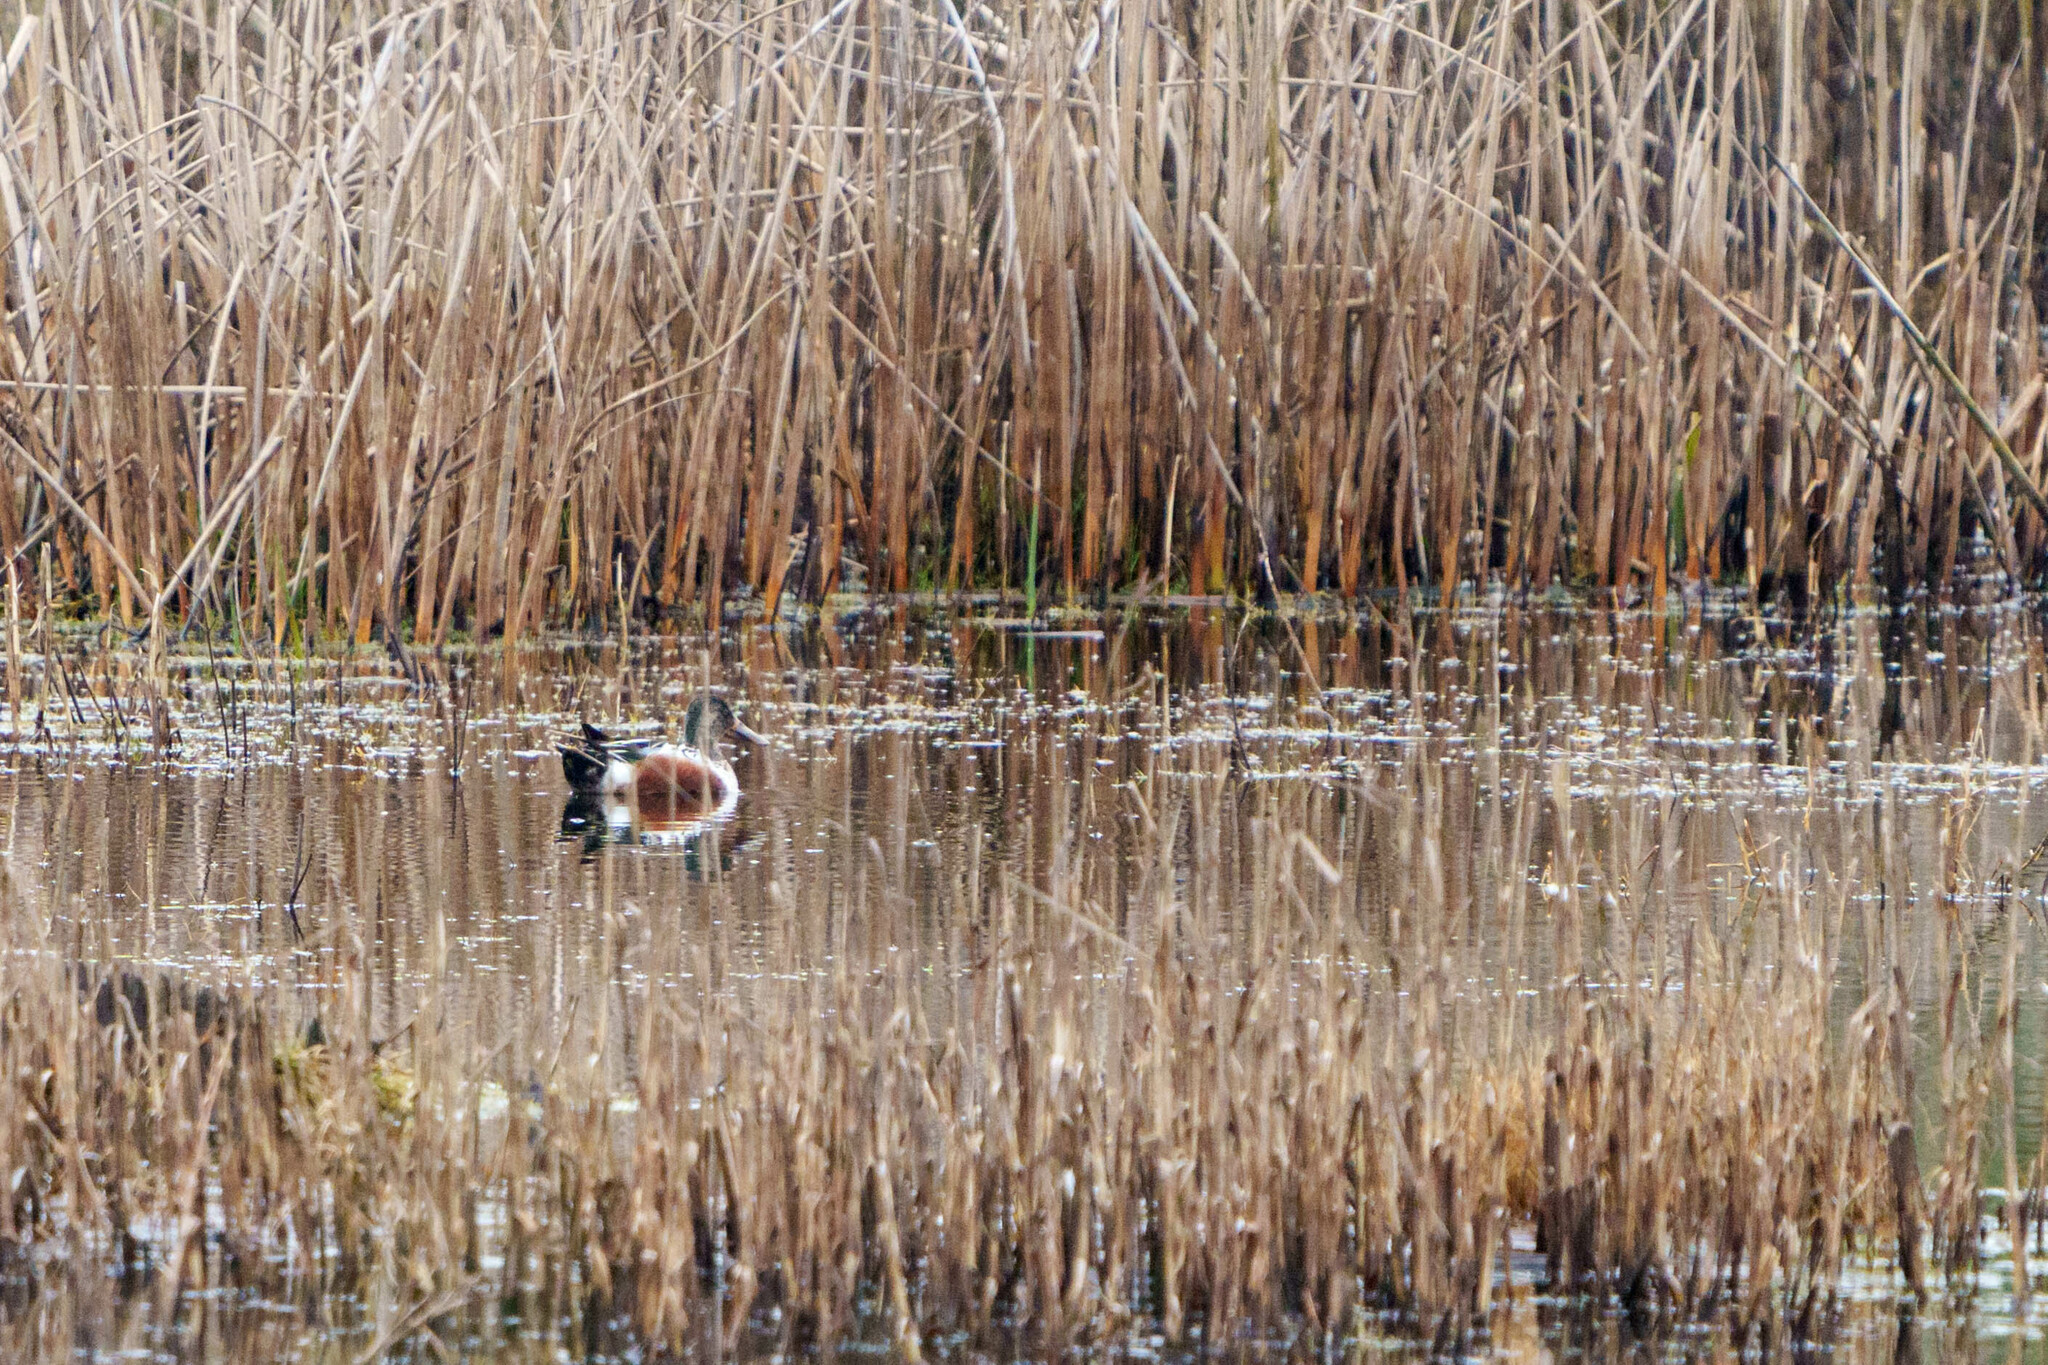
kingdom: Animalia
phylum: Chordata
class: Aves
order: Anseriformes
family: Anatidae
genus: Spatula
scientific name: Spatula clypeata
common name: Northern shoveler
